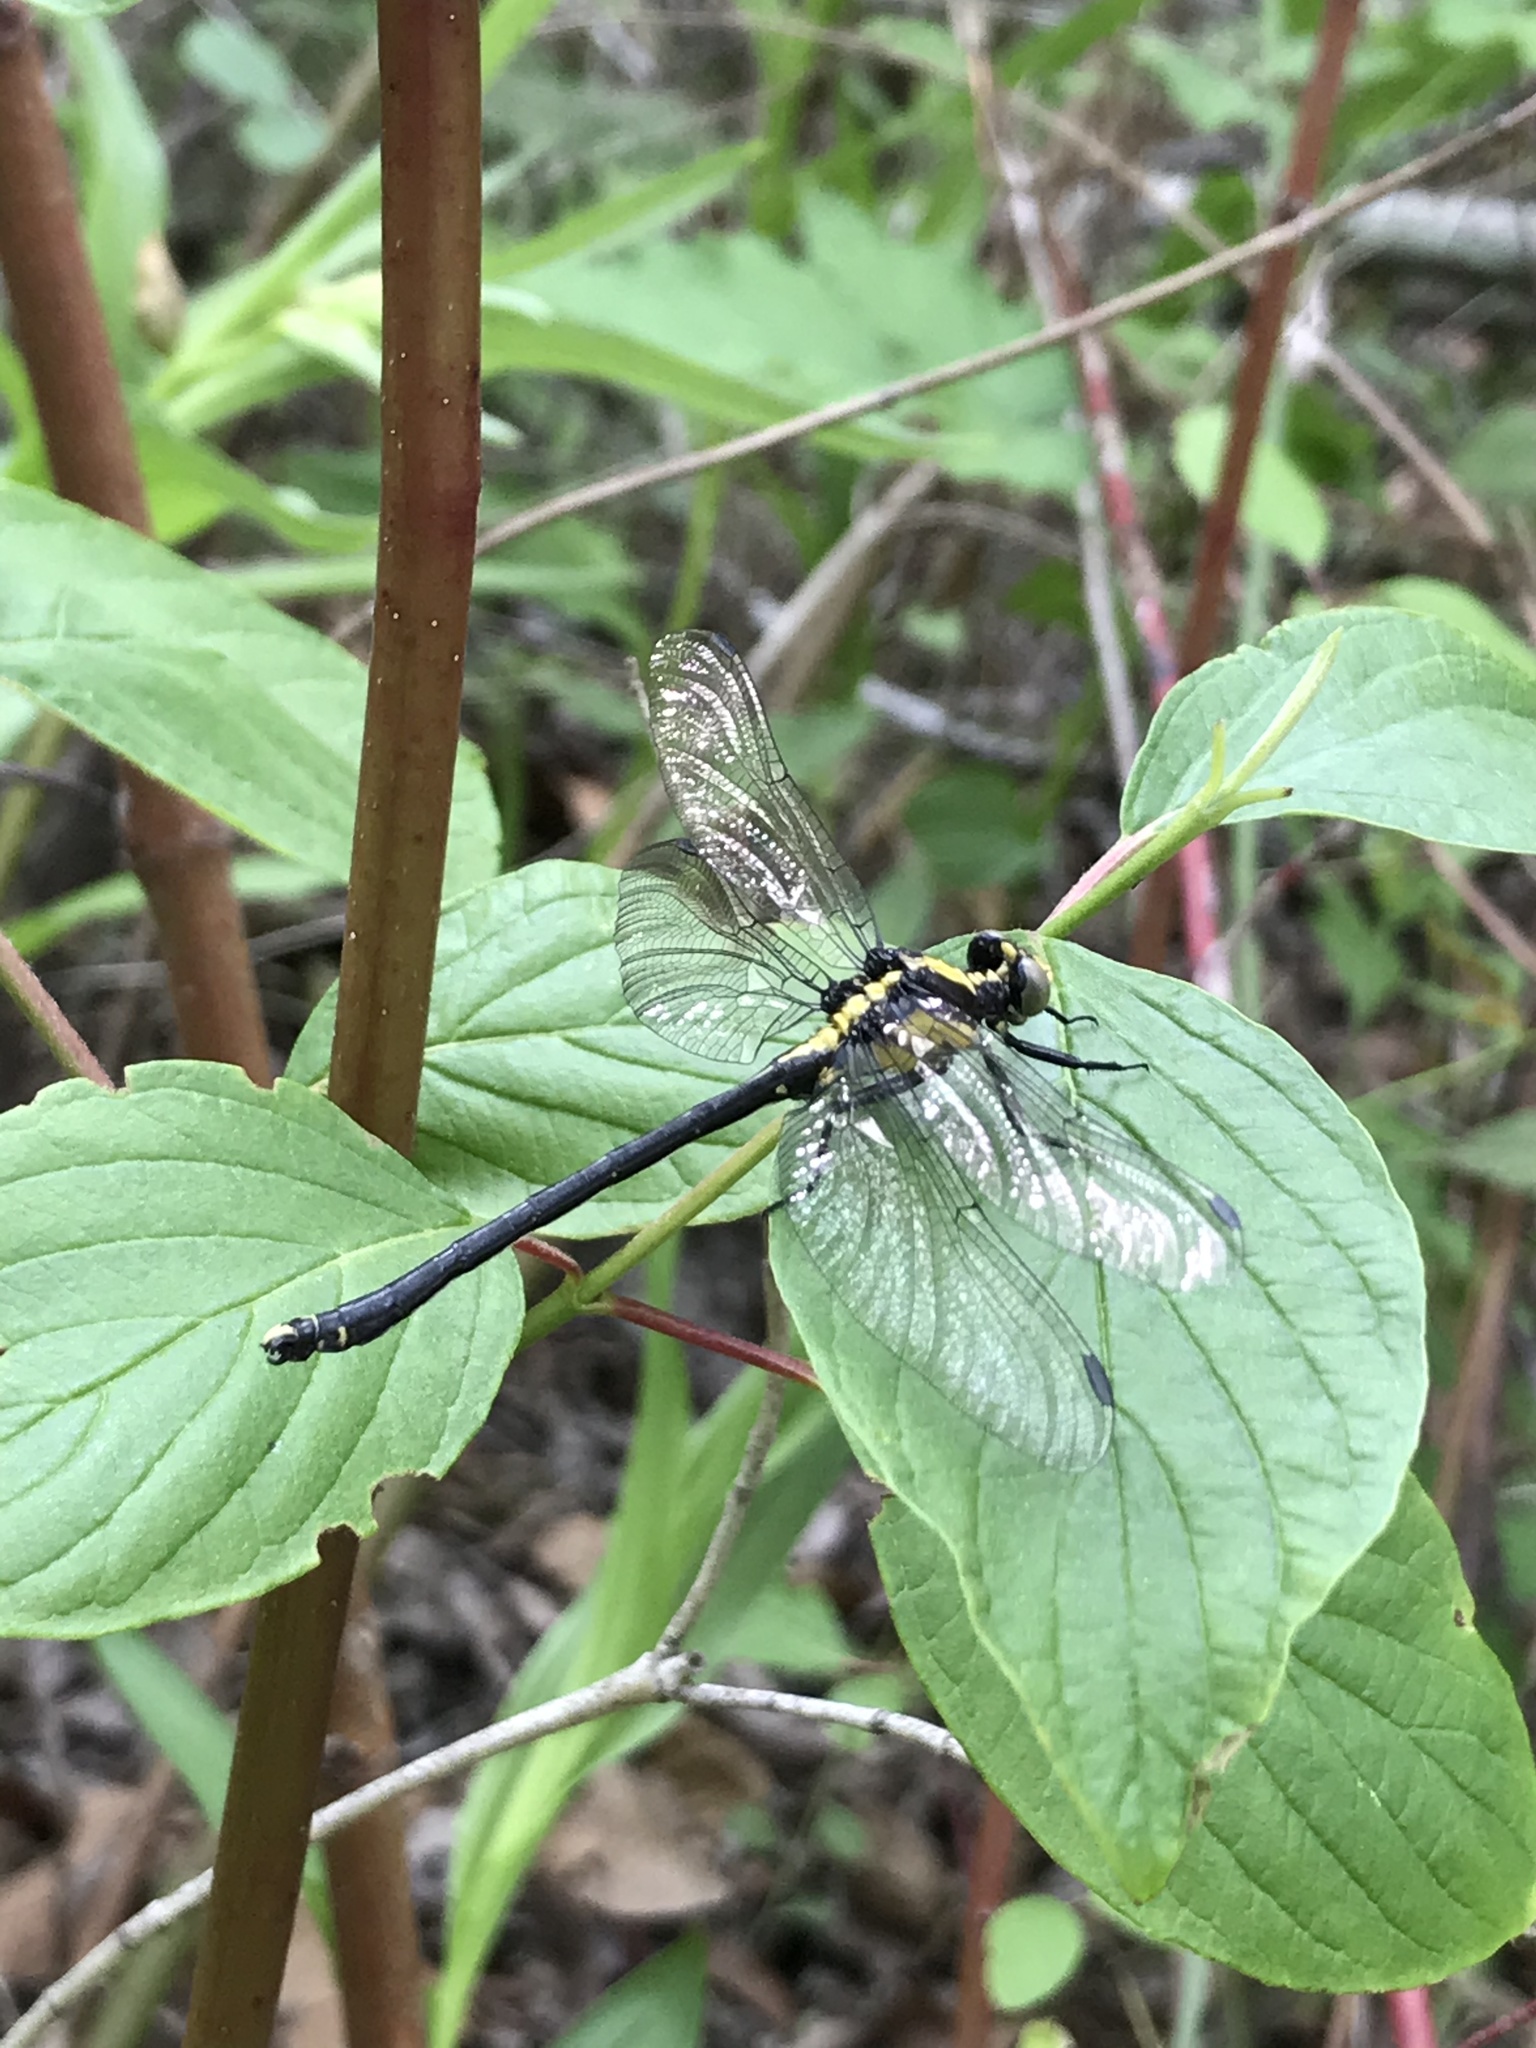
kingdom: Animalia
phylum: Arthropoda
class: Insecta
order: Odonata
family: Gomphidae
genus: Octogomphus
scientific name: Octogomphus specularis
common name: Grappletail
